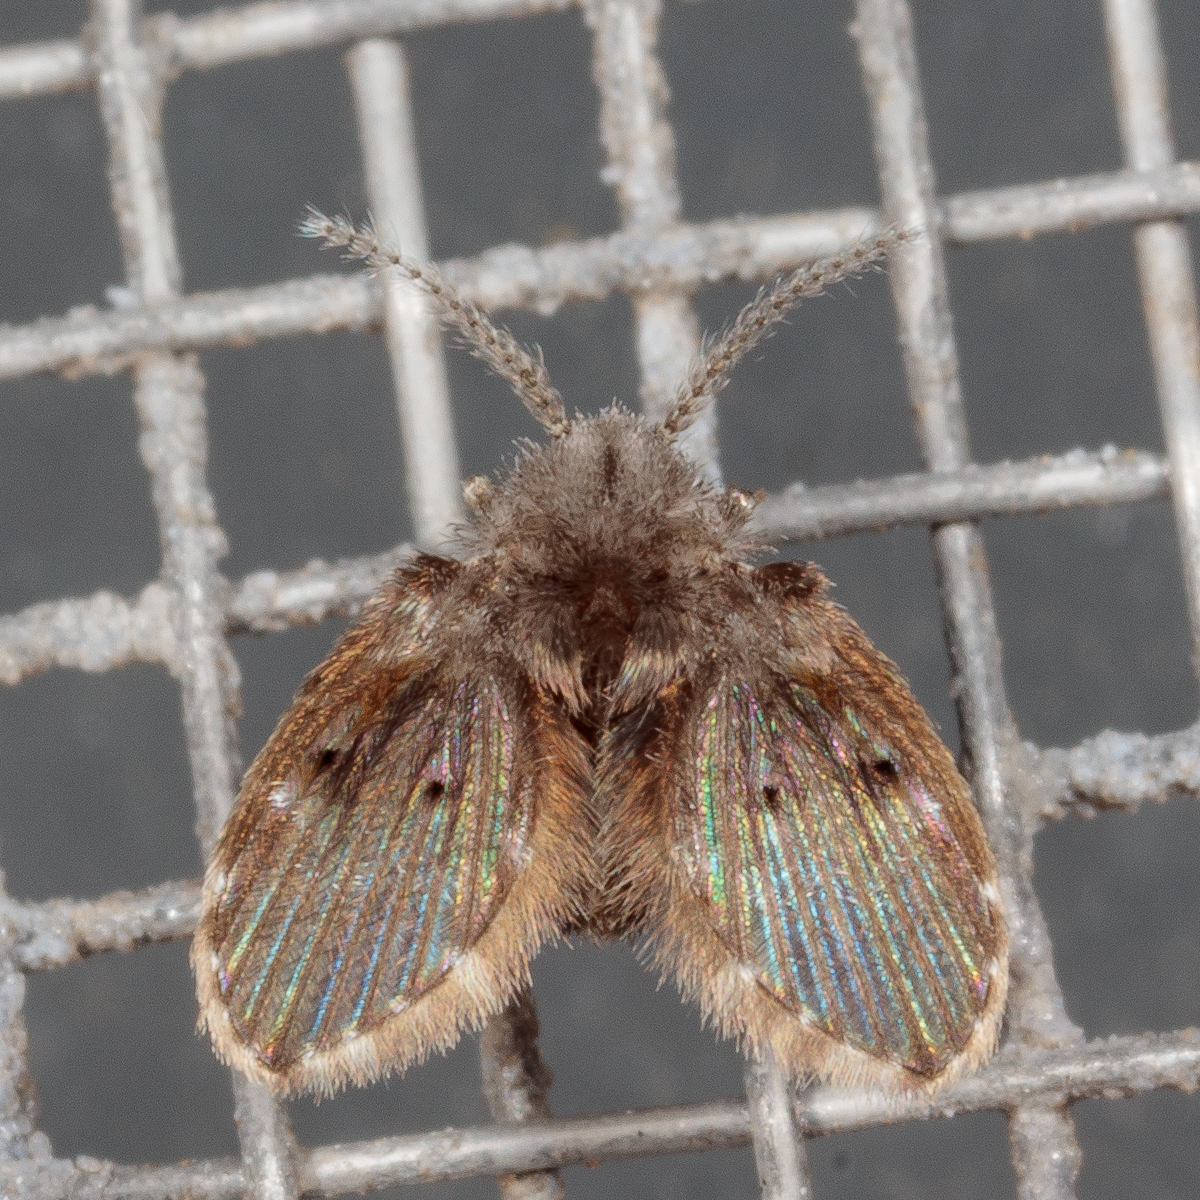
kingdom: Animalia
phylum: Arthropoda
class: Insecta
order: Diptera
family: Psychodidae
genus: Clogmia
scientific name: Clogmia albipunctatus
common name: White-spotted moth fly
